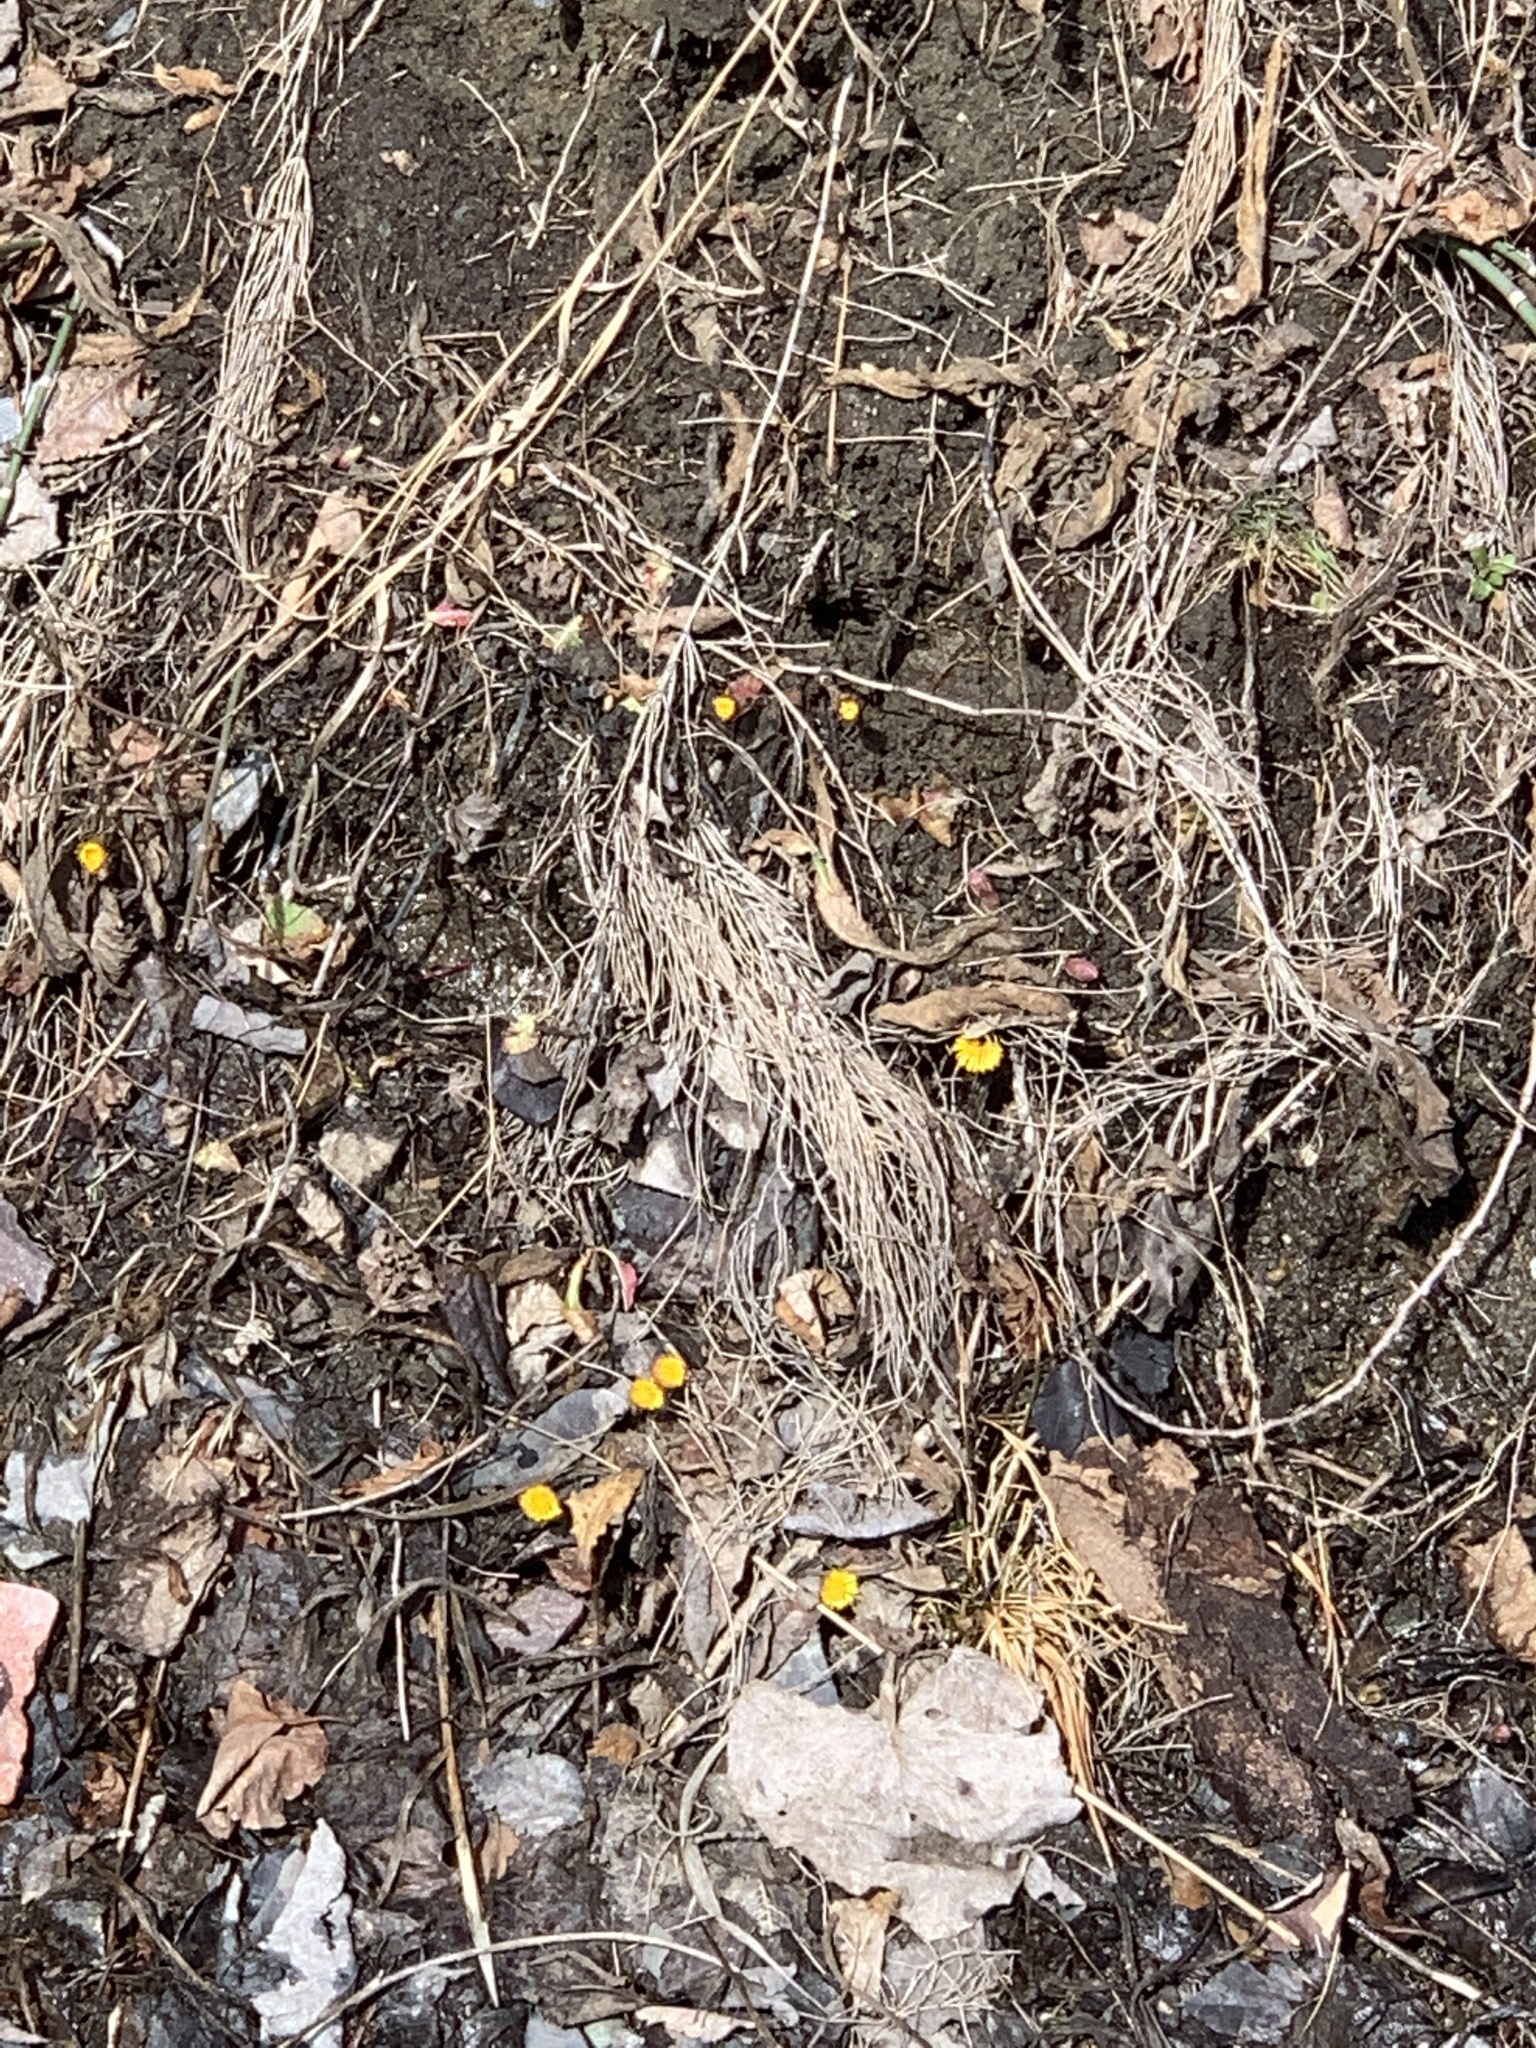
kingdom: Plantae
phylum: Tracheophyta
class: Magnoliopsida
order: Asterales
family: Asteraceae
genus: Tussilago
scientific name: Tussilago farfara
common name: Coltsfoot
